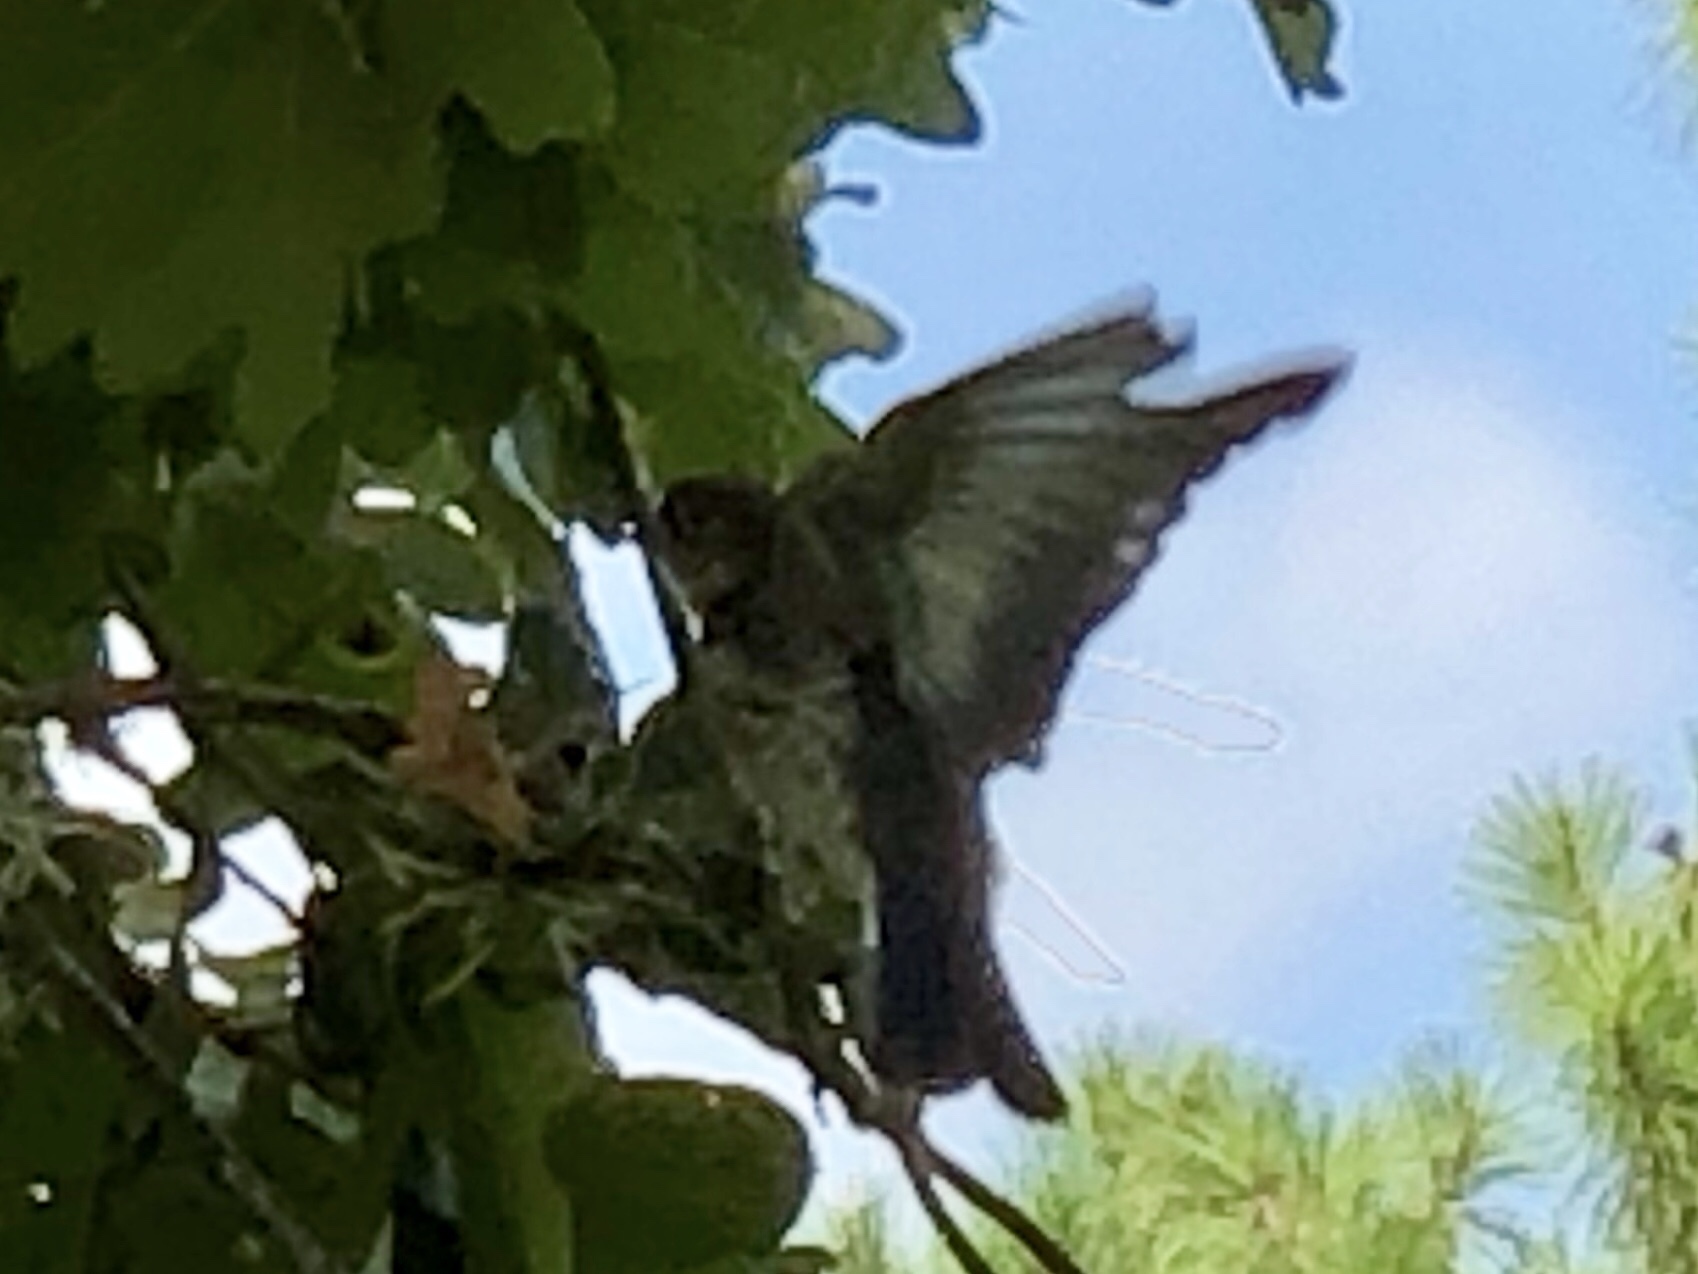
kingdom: Animalia
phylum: Chordata
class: Aves
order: Passeriformes
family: Turdidae
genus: Sialia
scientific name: Sialia sialis
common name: Eastern bluebird
